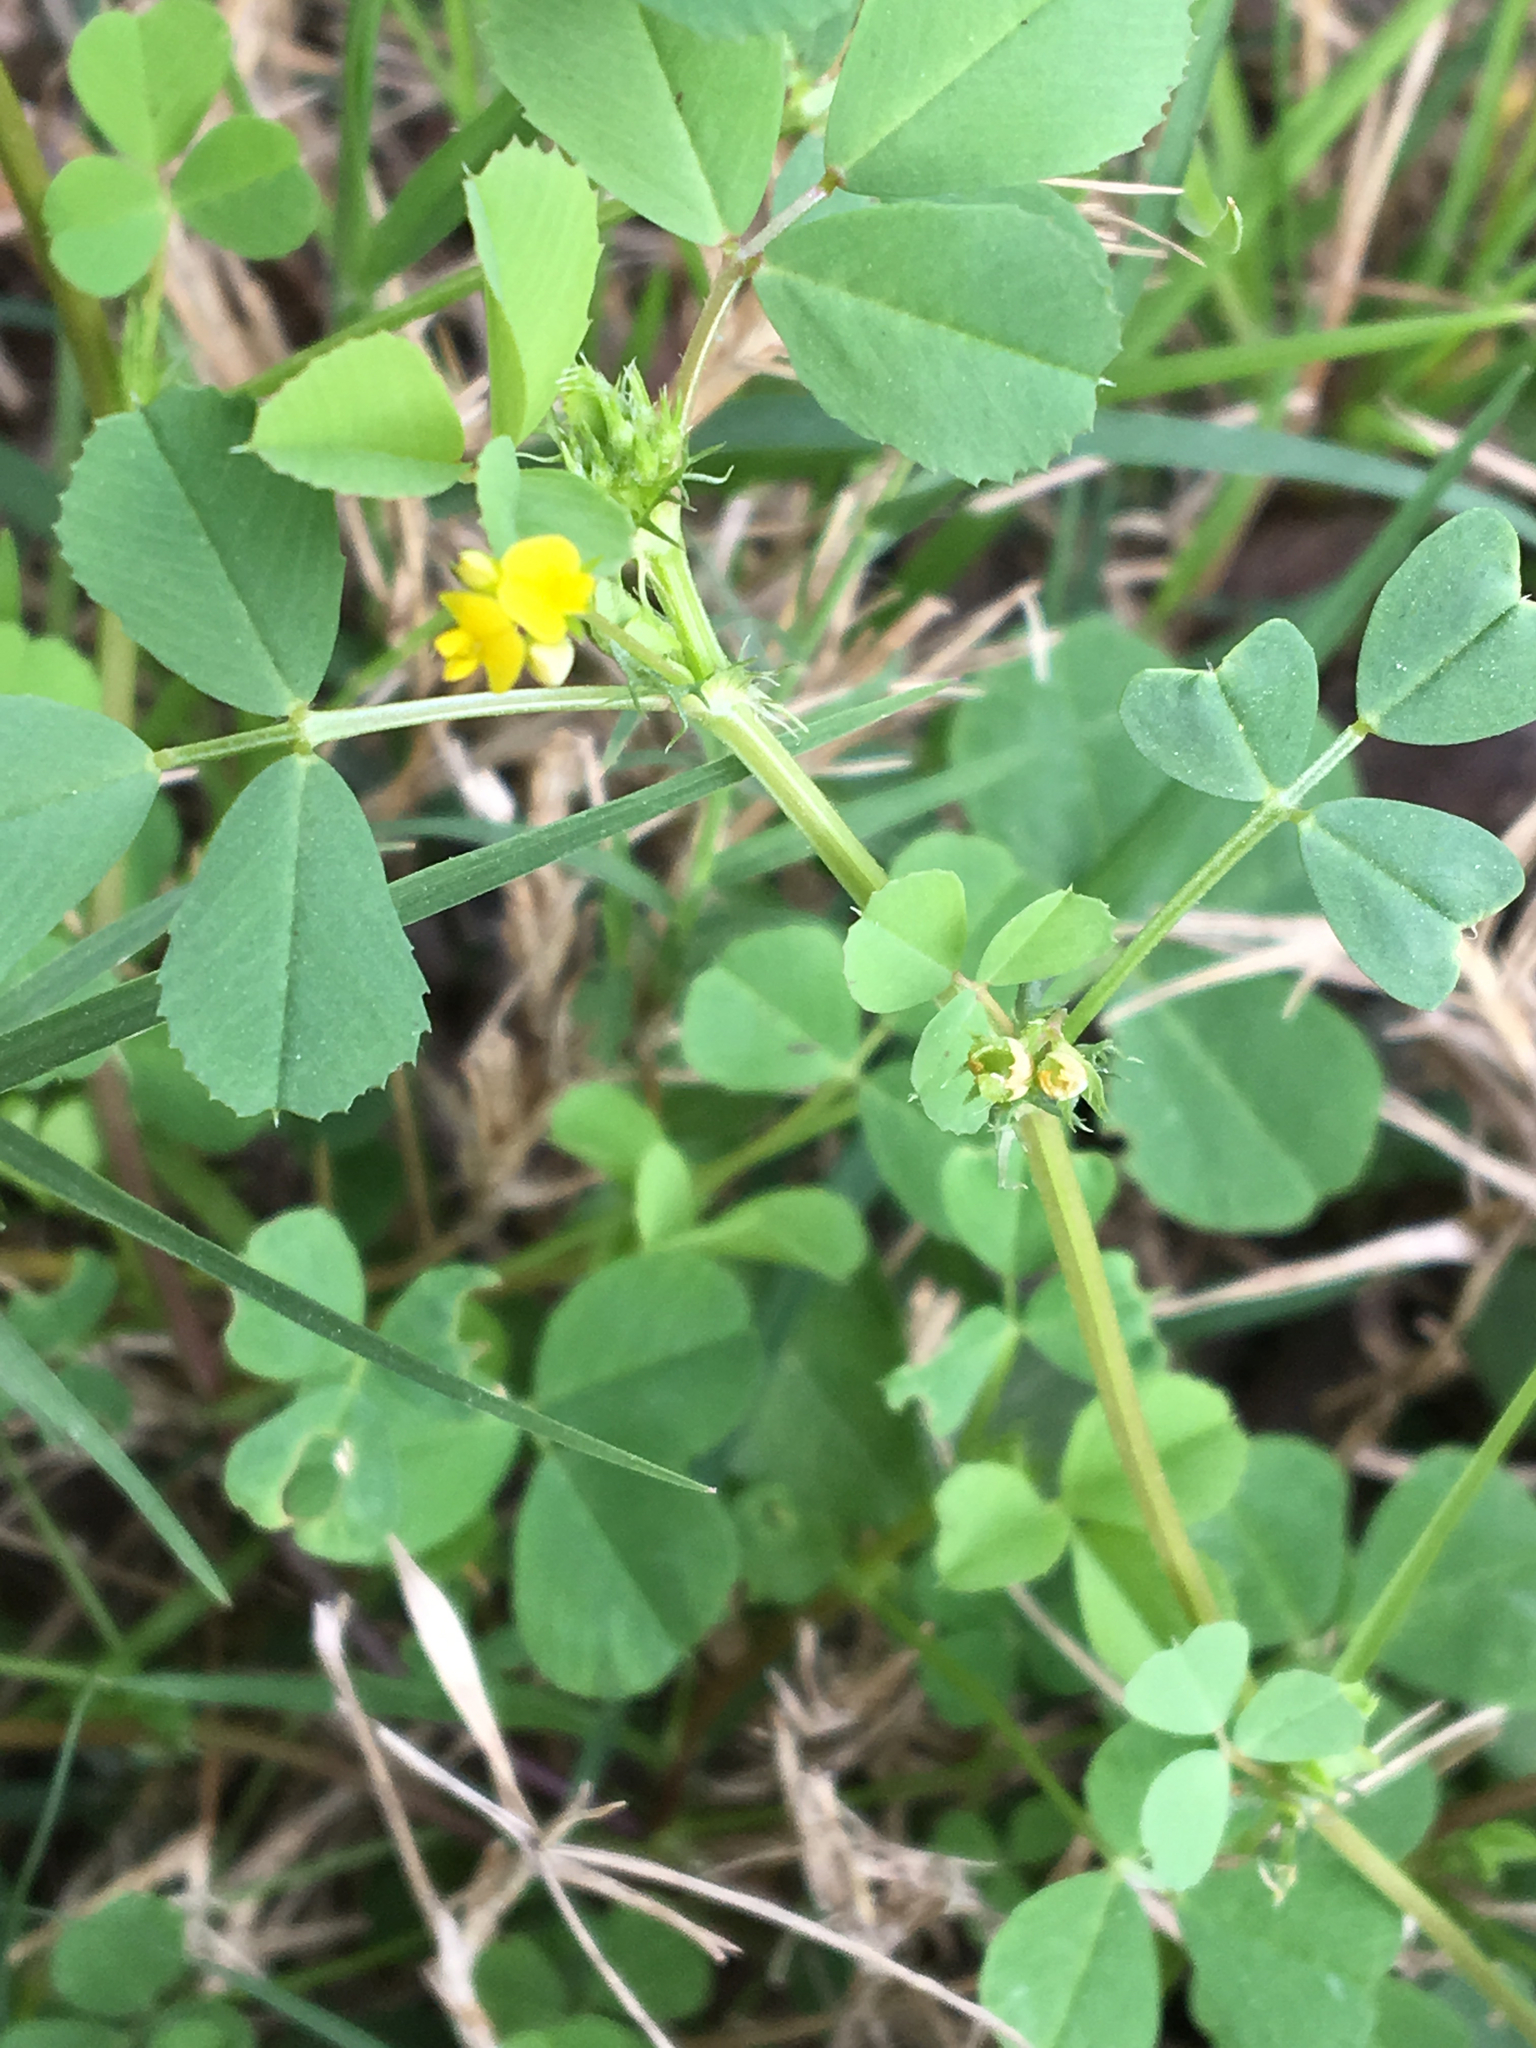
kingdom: Plantae
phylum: Tracheophyta
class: Magnoliopsida
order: Fabales
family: Fabaceae
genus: Medicago
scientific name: Medicago polymorpha
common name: Burclover
